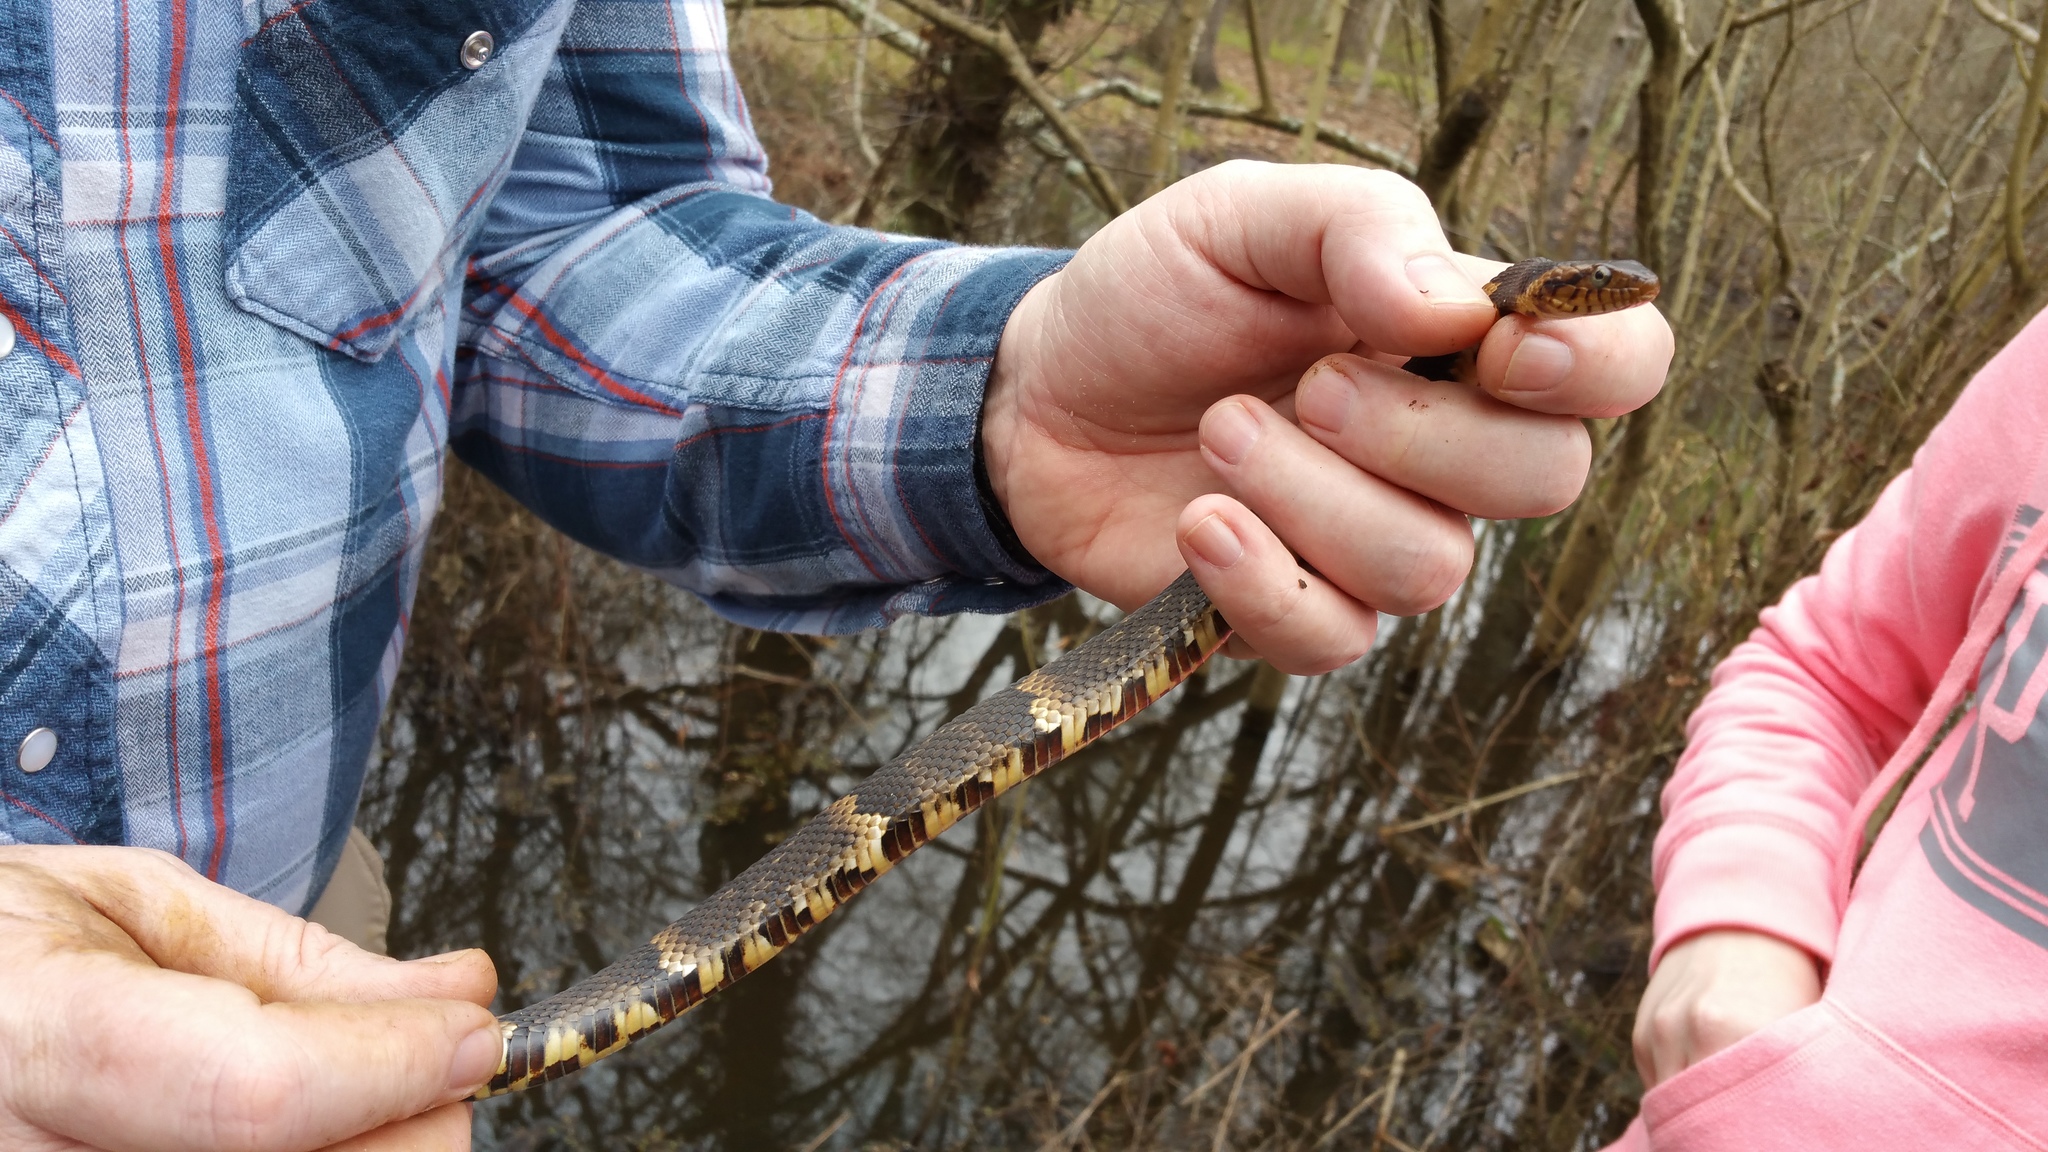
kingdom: Animalia
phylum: Chordata
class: Squamata
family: Colubridae
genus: Nerodia
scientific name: Nerodia fasciata
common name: Southern water snake
